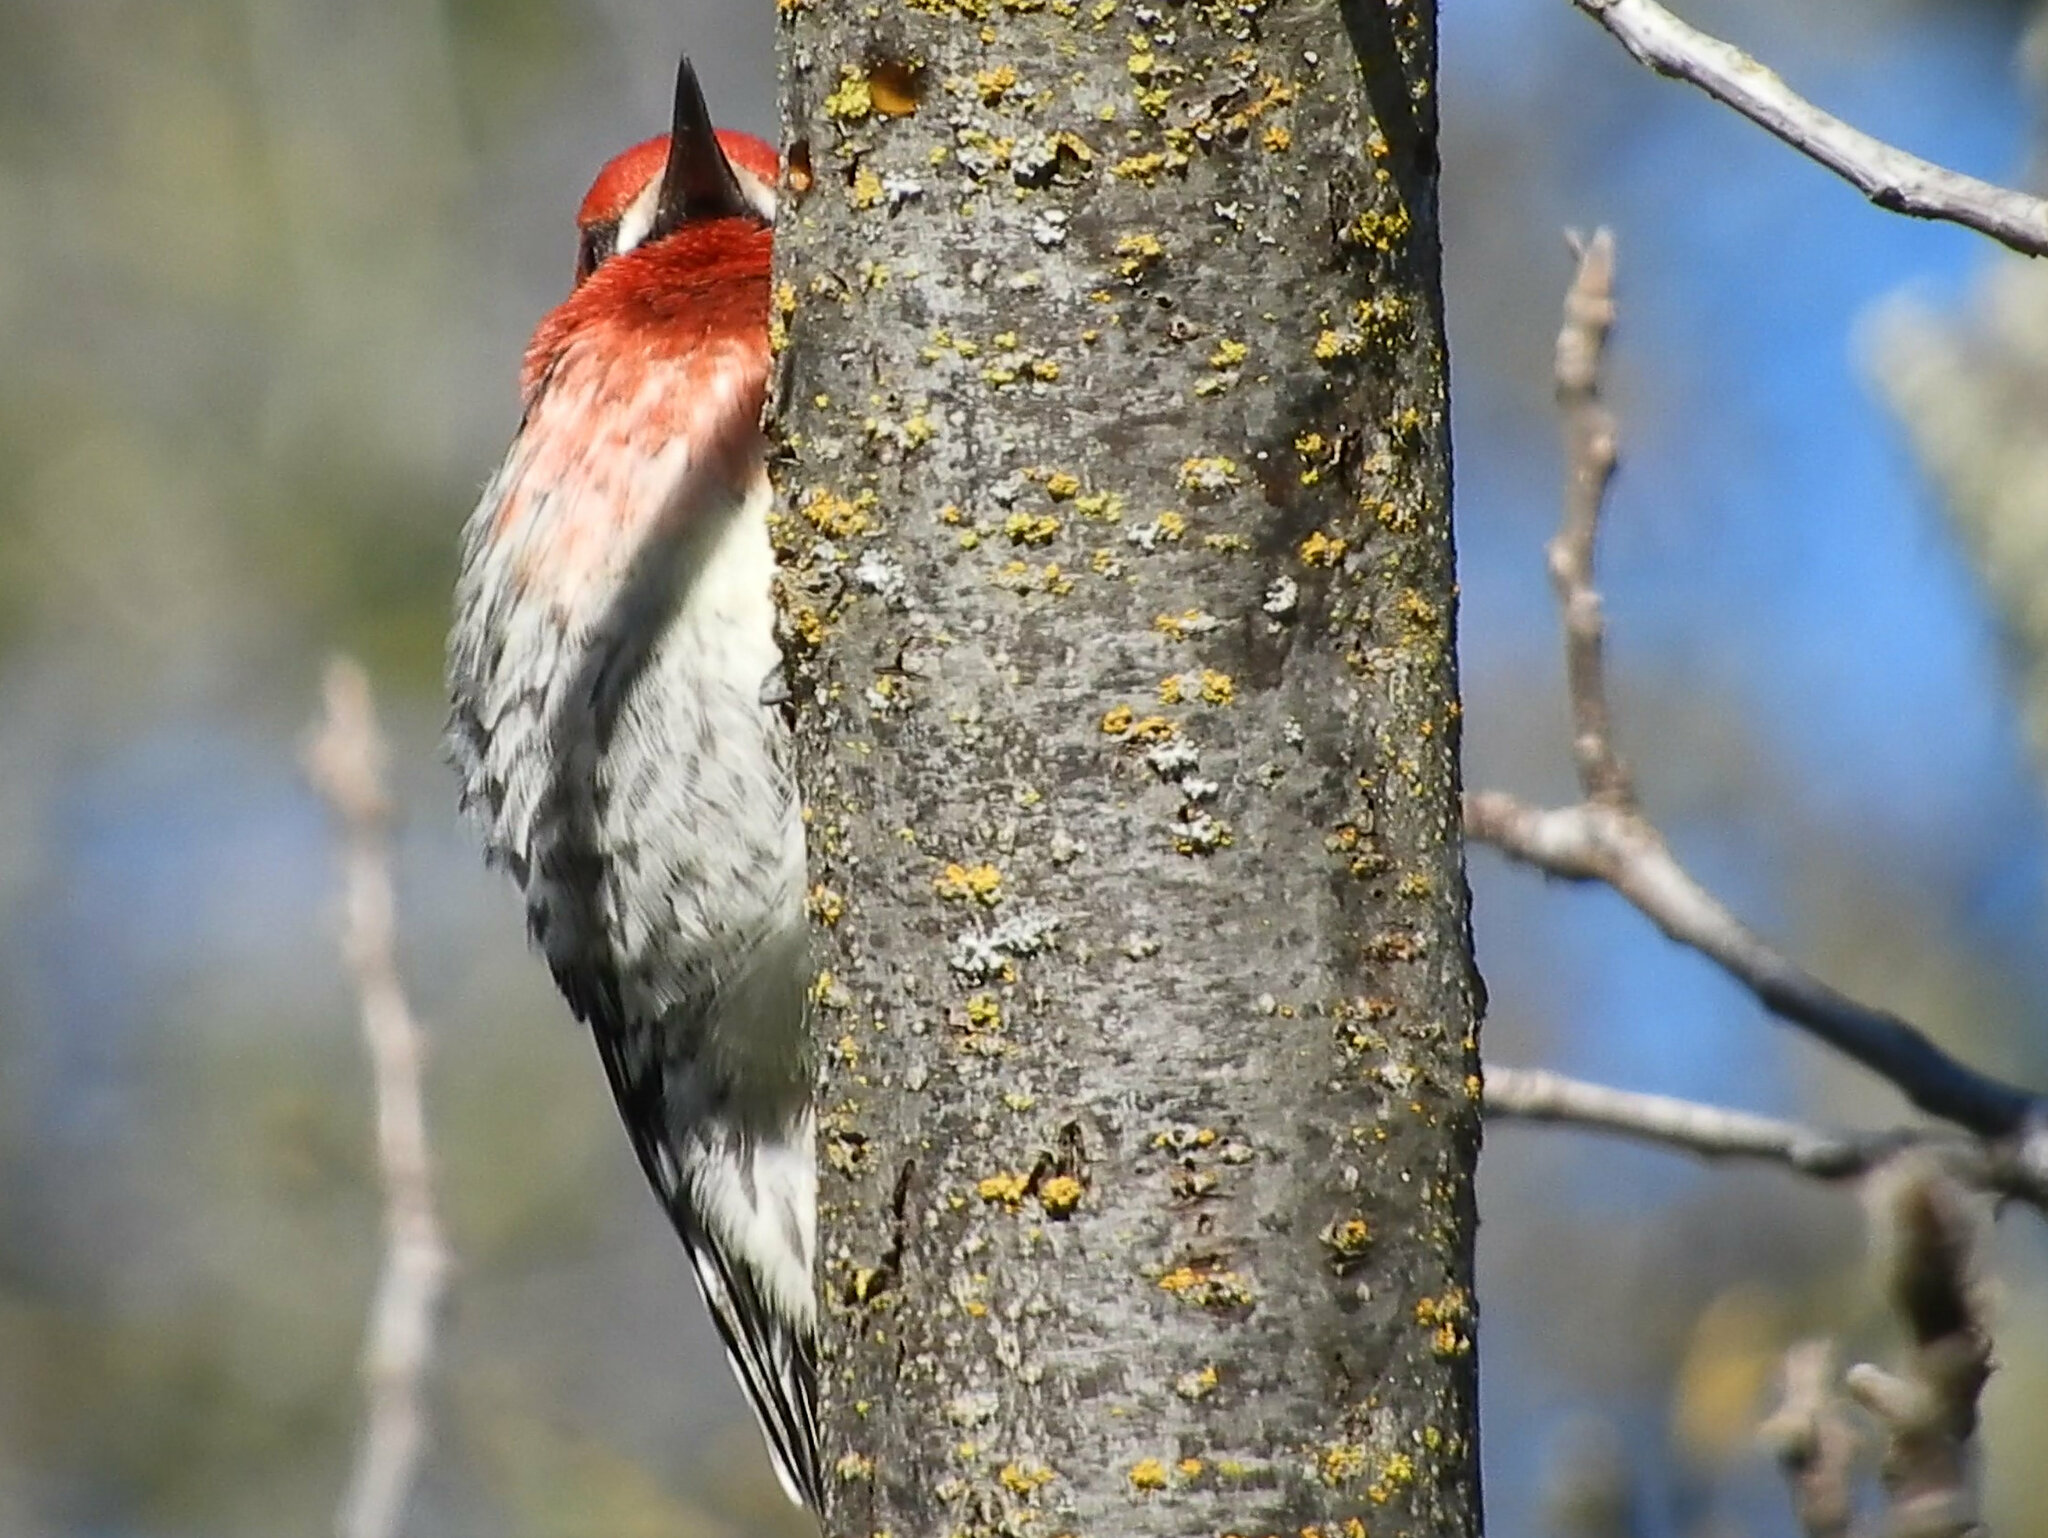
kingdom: Animalia
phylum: Chordata
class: Aves
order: Piciformes
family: Picidae
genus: Sphyrapicus
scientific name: Sphyrapicus ruber
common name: Red-breasted sapsucker
